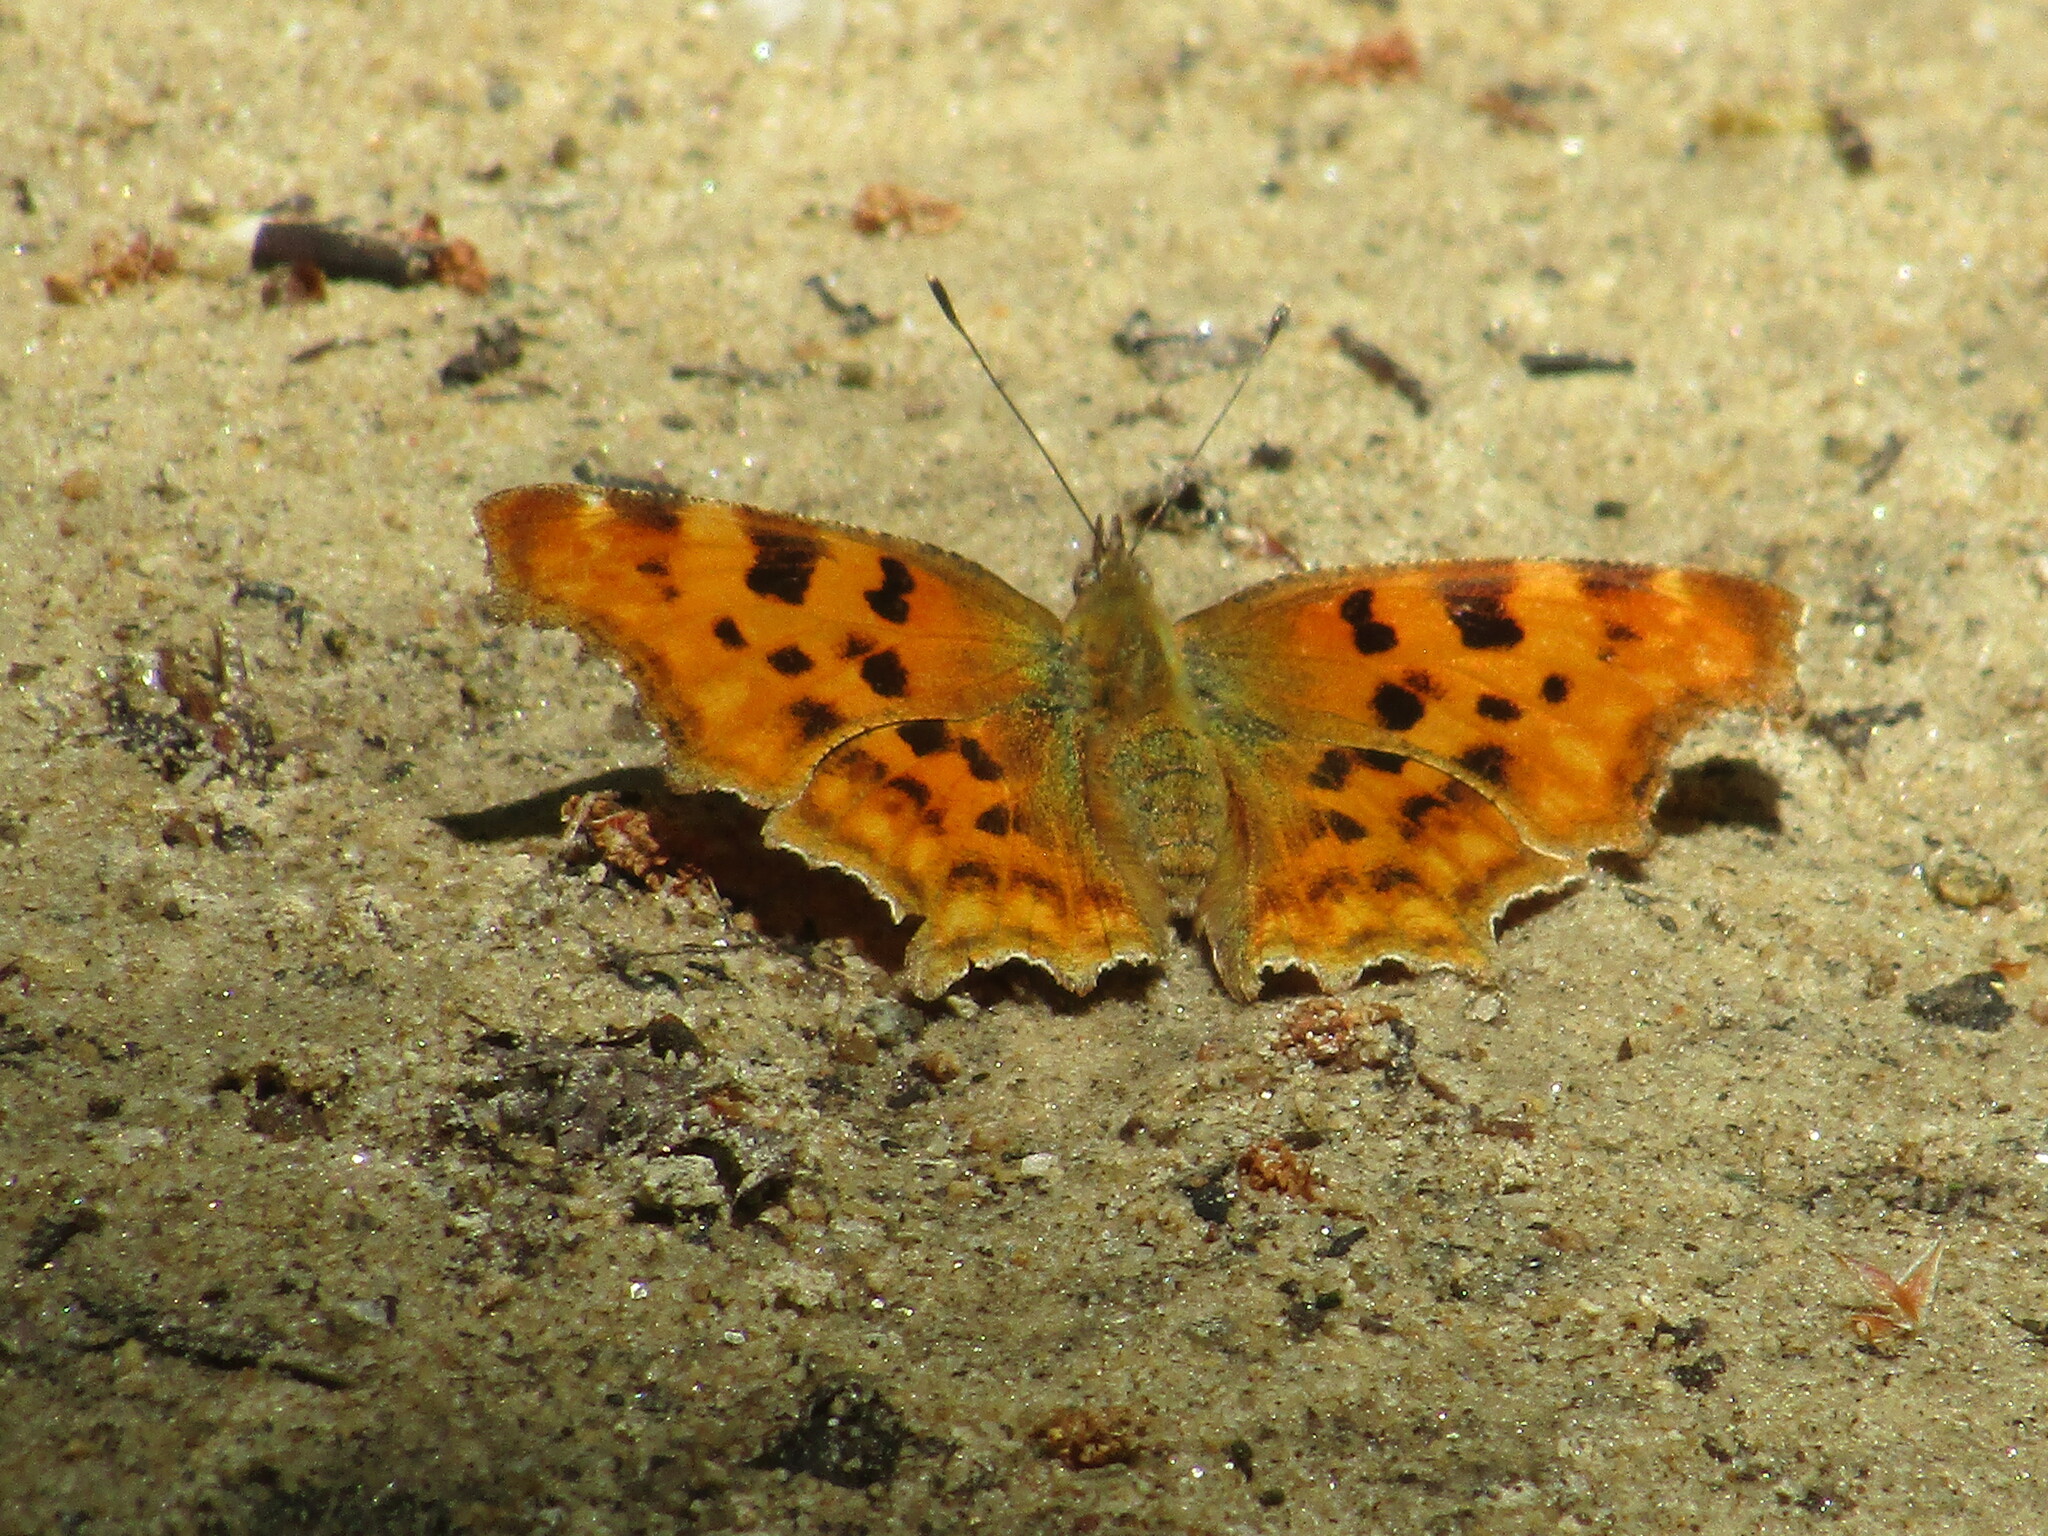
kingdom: Animalia
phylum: Arthropoda
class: Insecta
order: Lepidoptera
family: Nymphalidae
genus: Polygonia
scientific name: Polygonia c-album
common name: Comma
